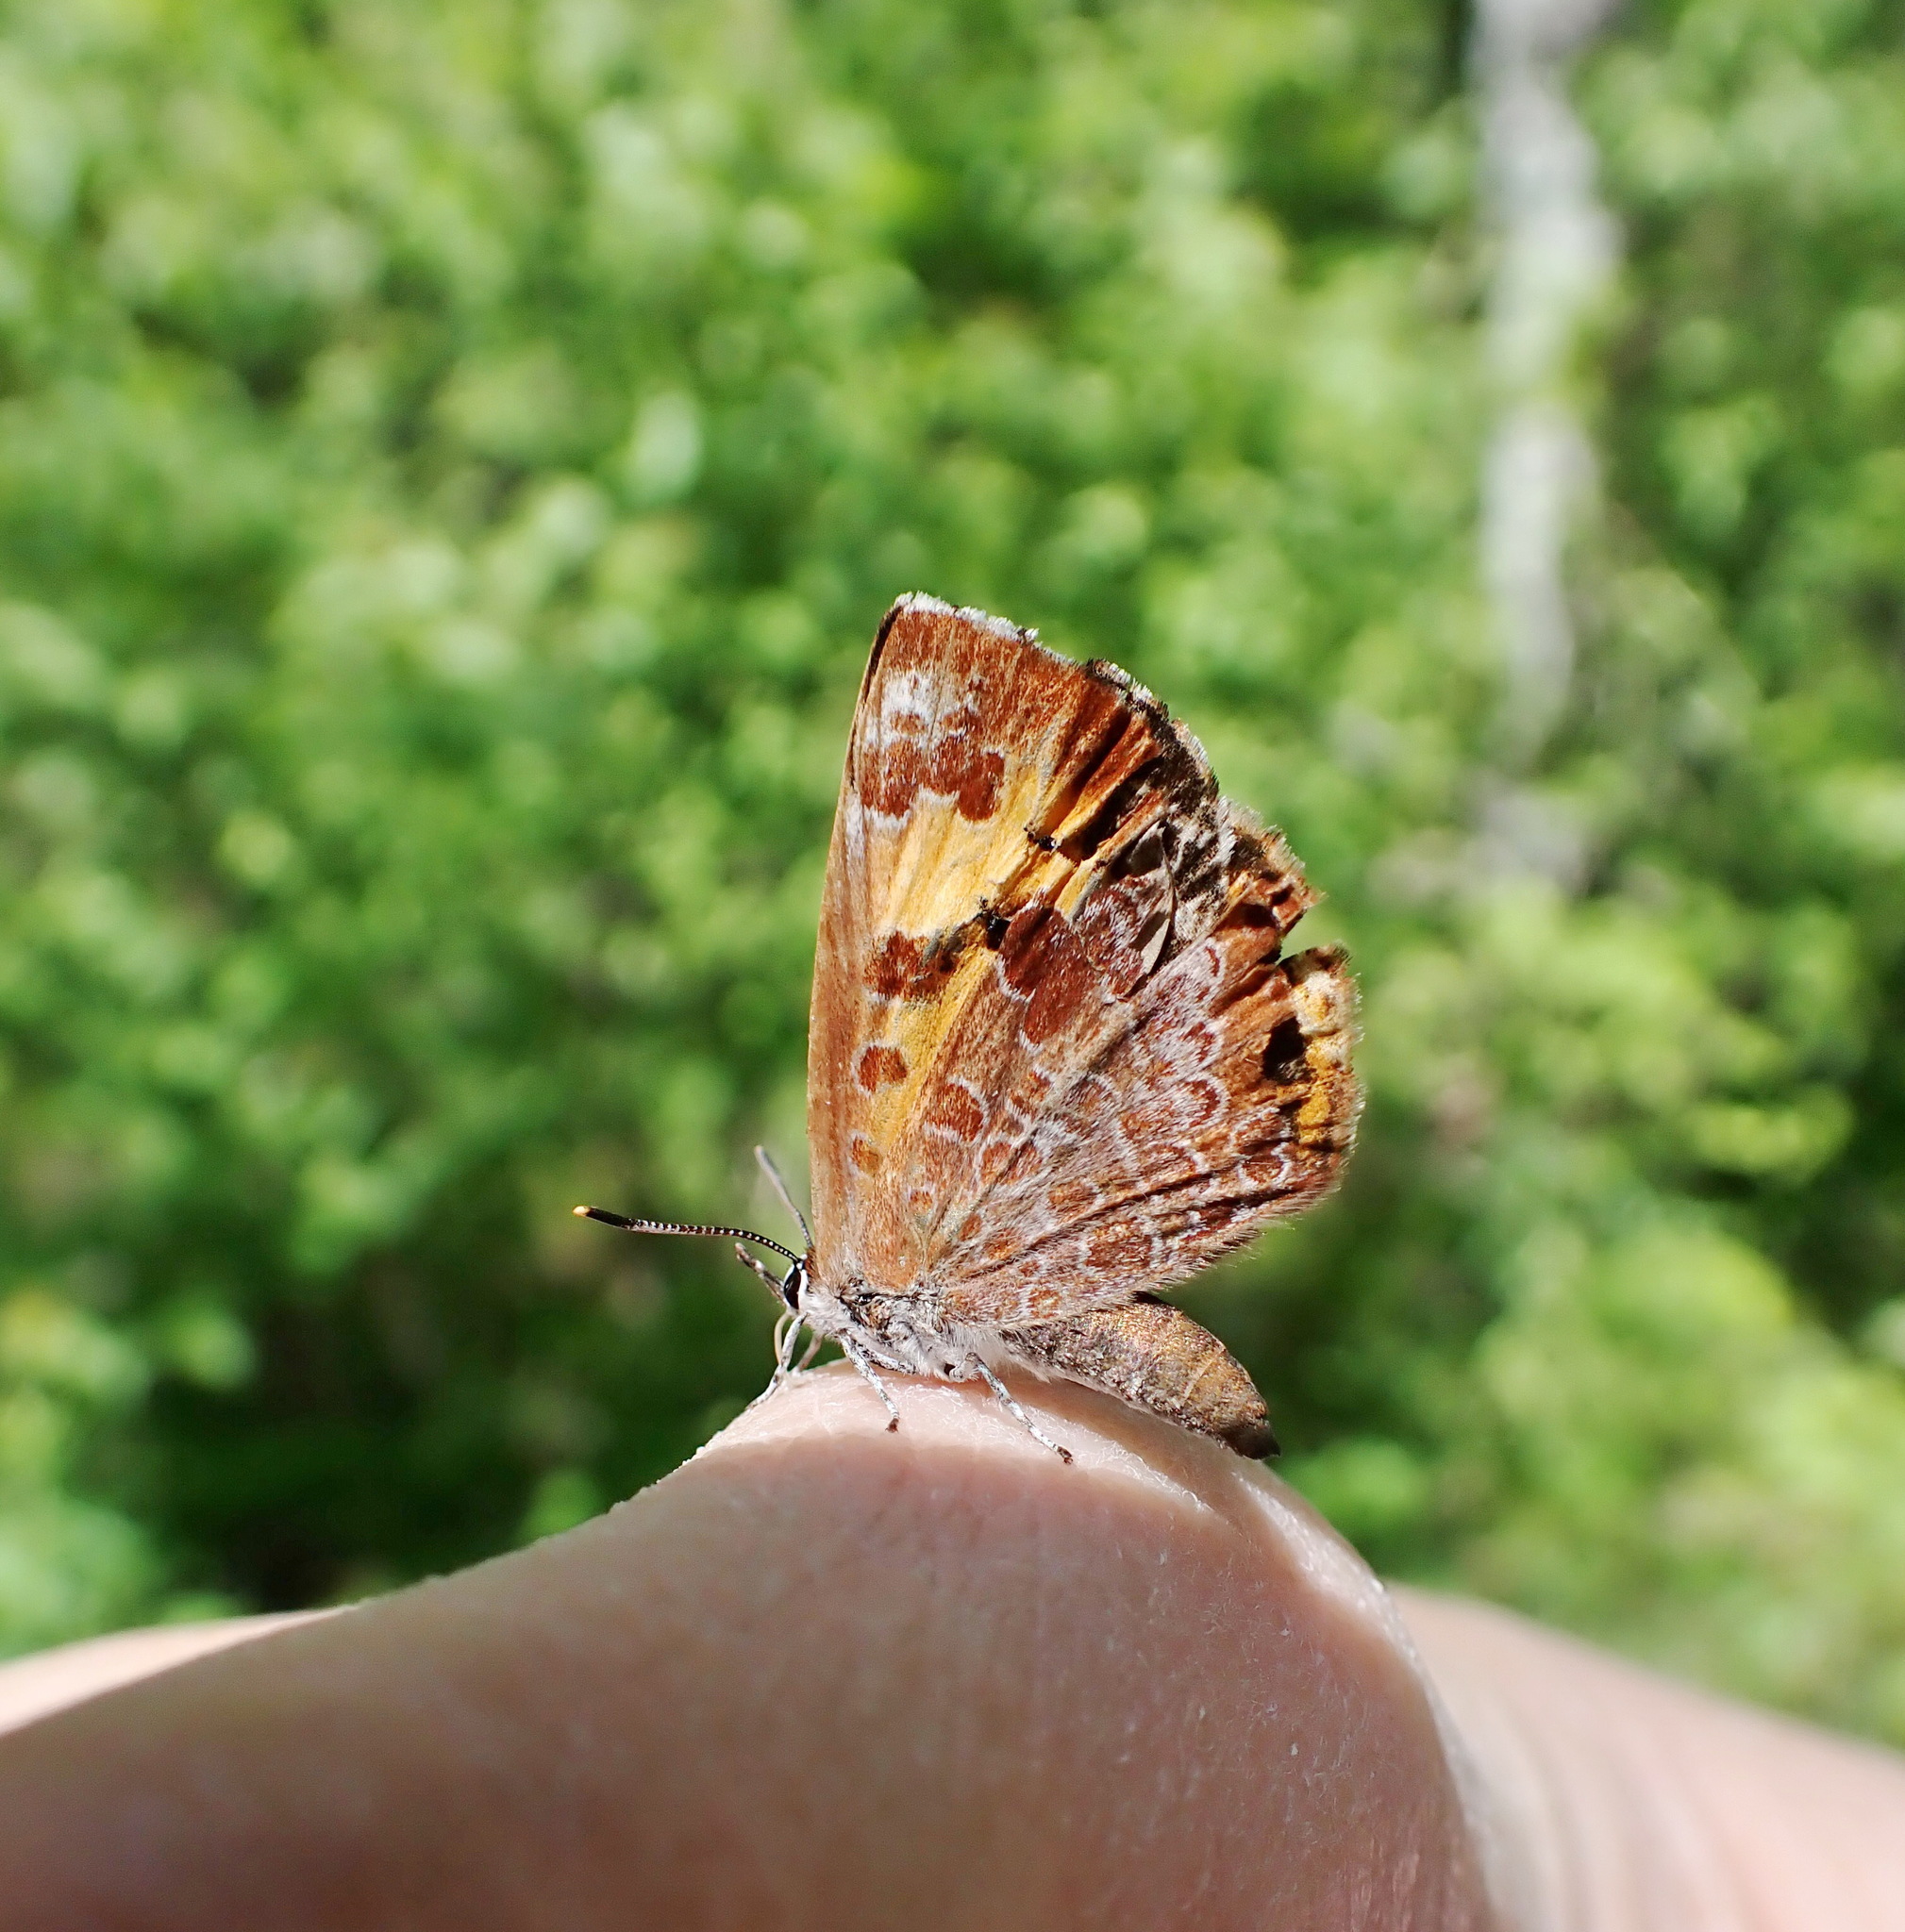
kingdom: Animalia
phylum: Arthropoda
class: Insecta
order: Lepidoptera
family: Lycaenidae
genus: Feniseca
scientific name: Feniseca tarquinius
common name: Harvester
